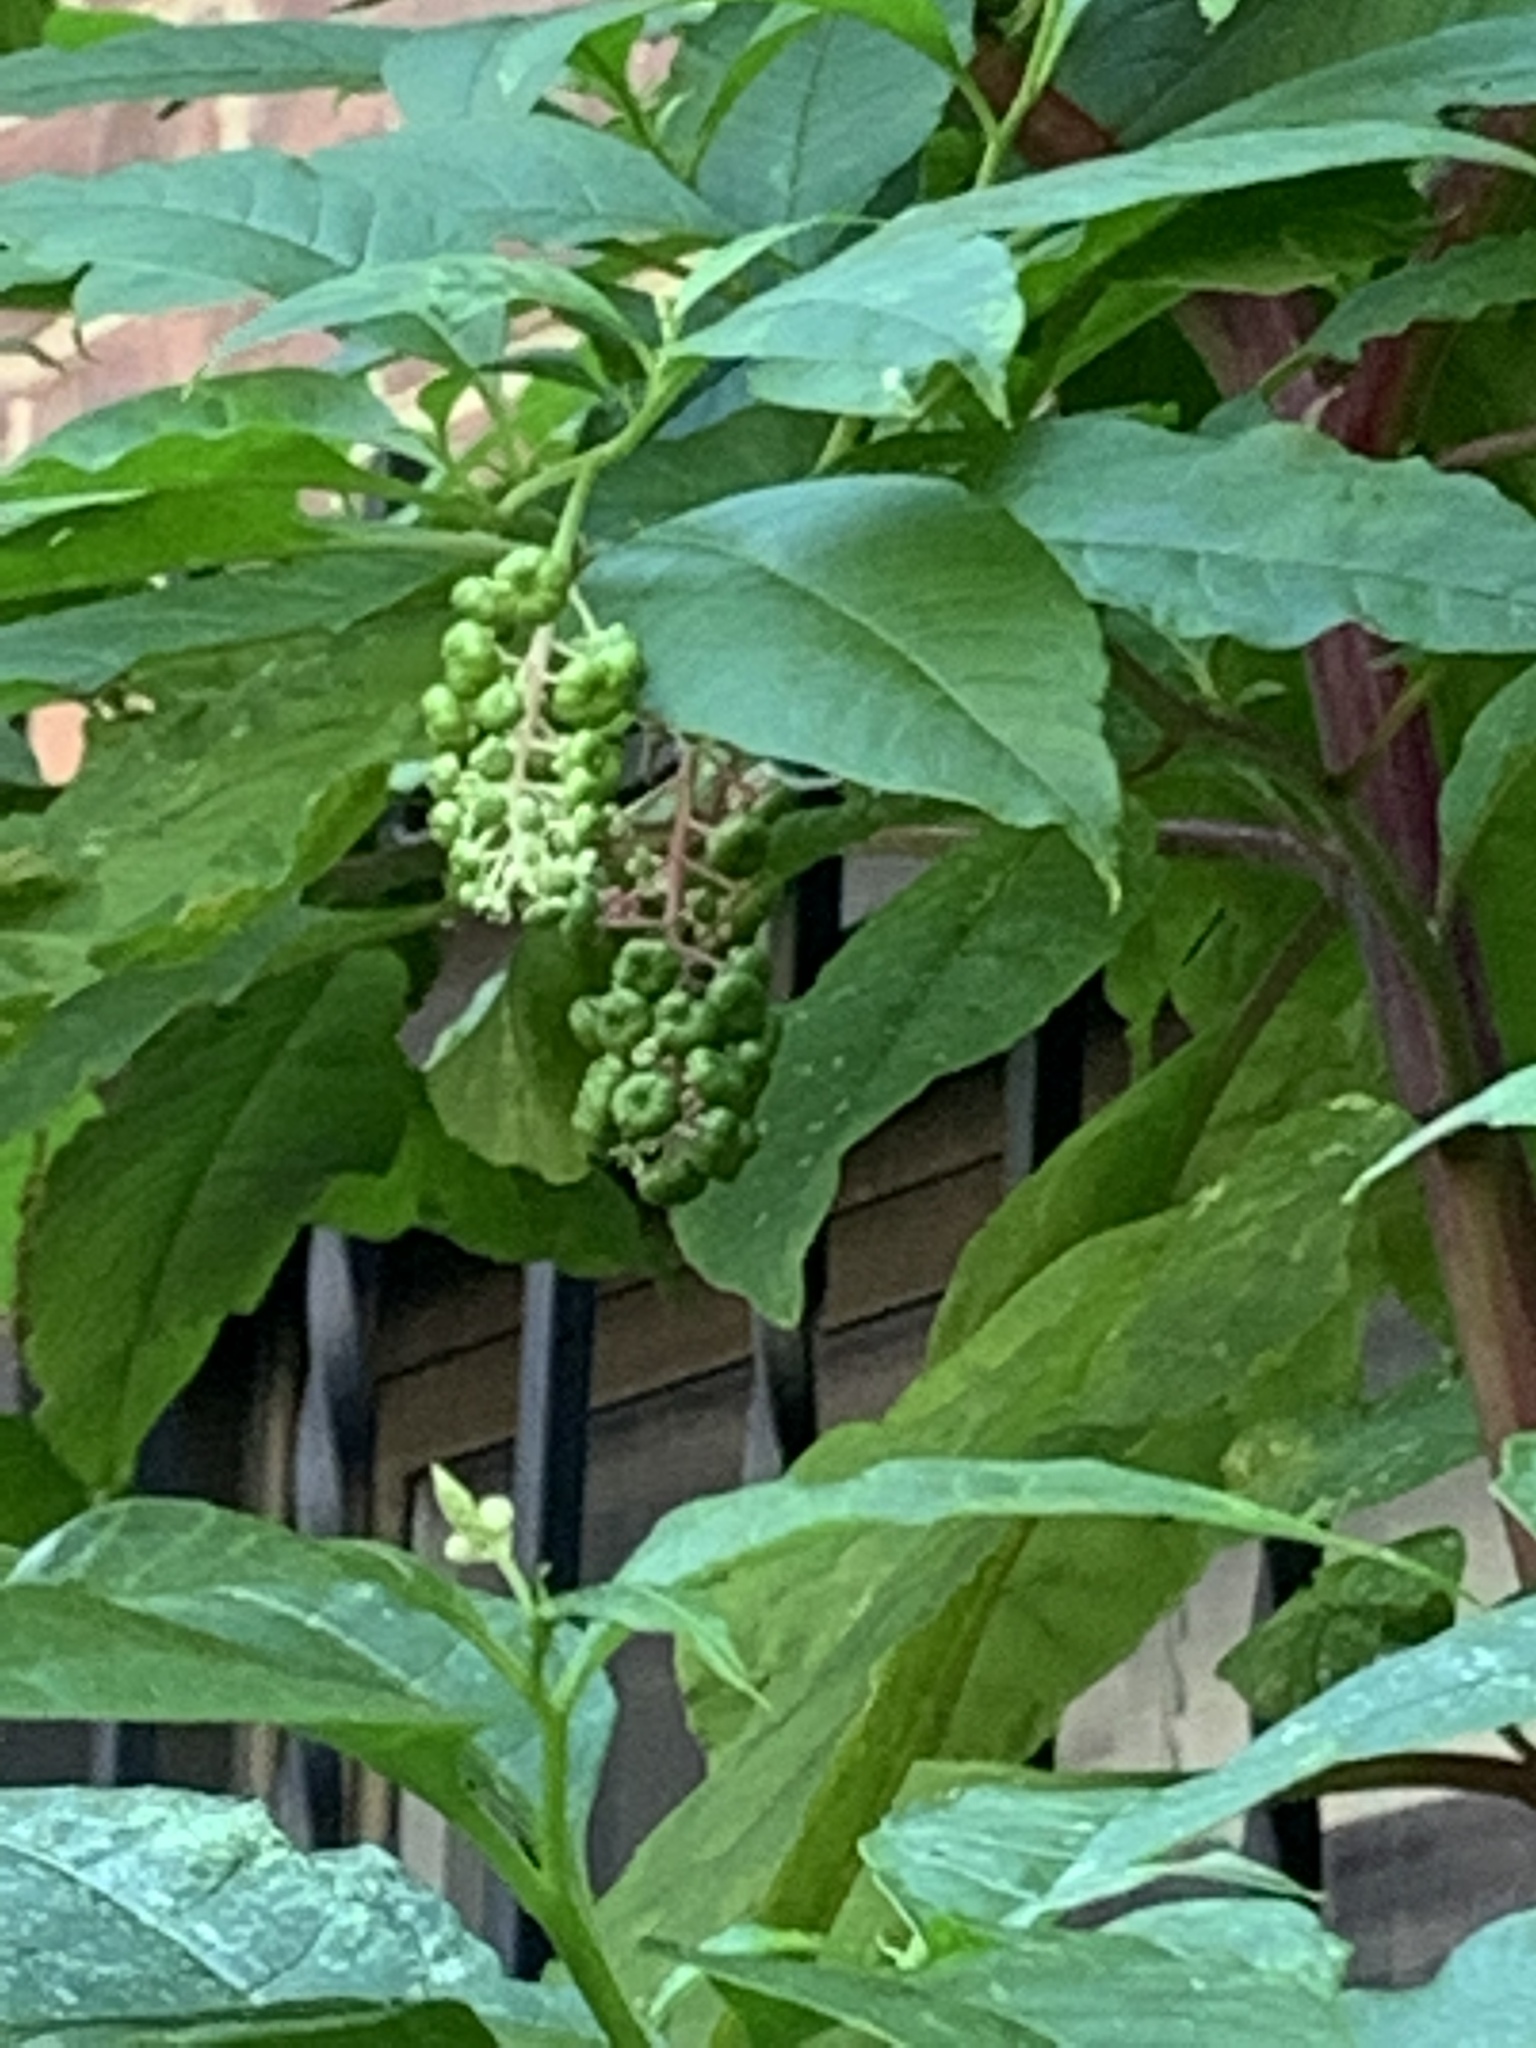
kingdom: Plantae
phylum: Tracheophyta
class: Magnoliopsida
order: Caryophyllales
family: Phytolaccaceae
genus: Phytolacca
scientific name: Phytolacca americana
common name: American pokeweed
